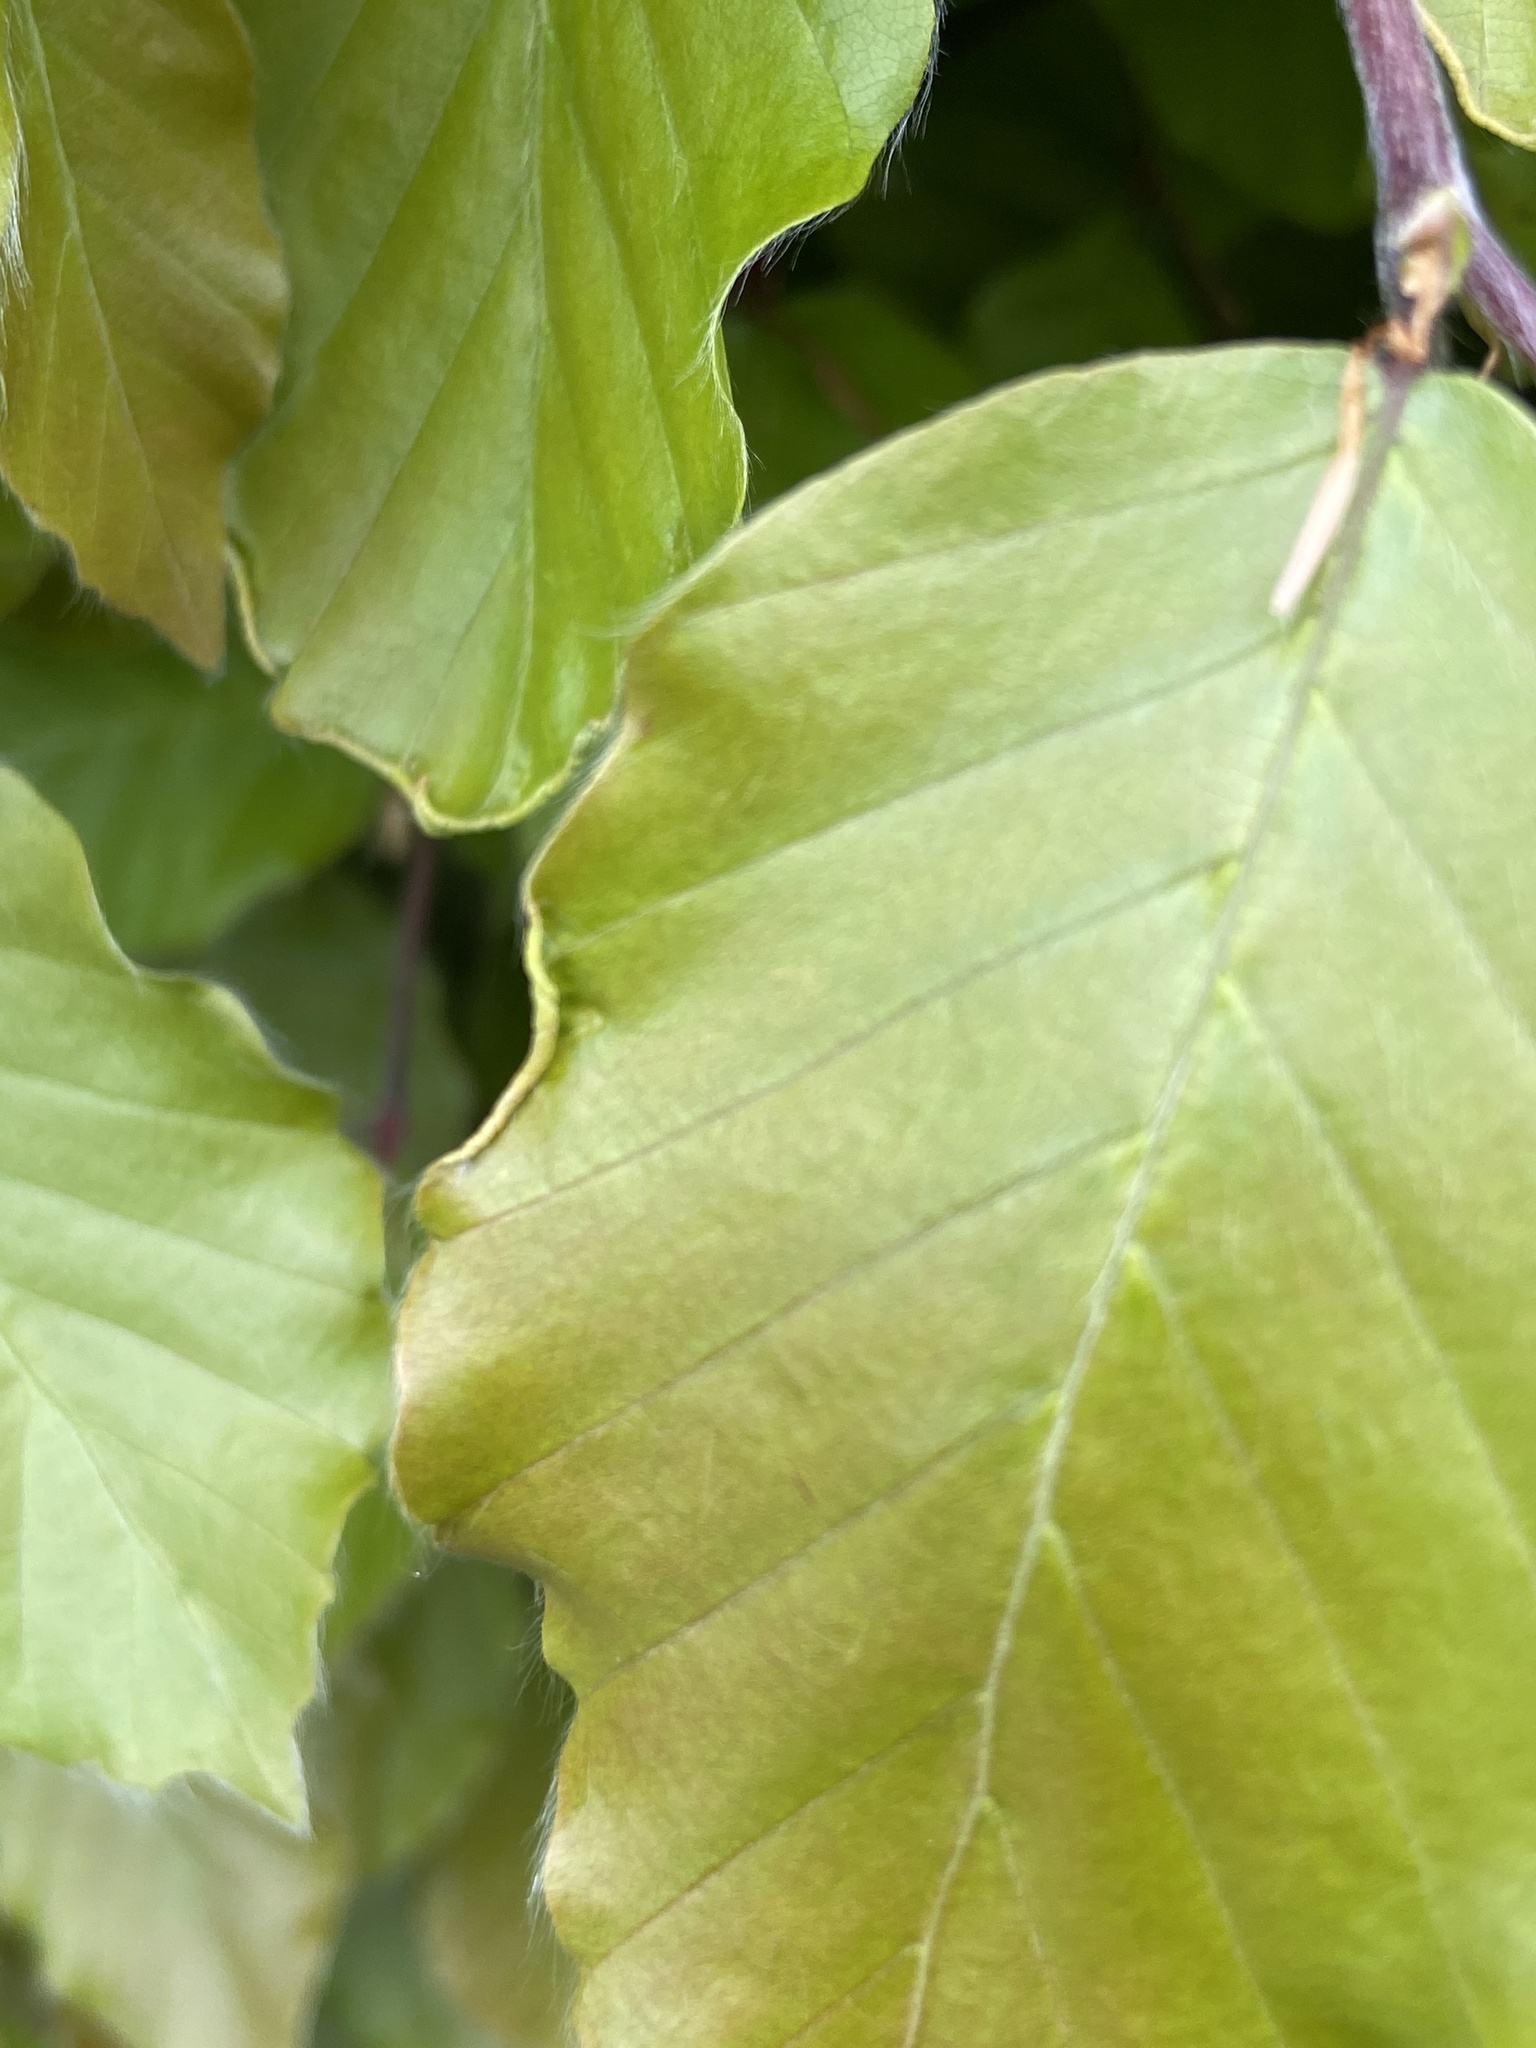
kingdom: Animalia
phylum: Arthropoda
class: Arachnida
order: Trombidiformes
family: Eriophyidae
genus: Acalitus
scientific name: Acalitus stenaspis
